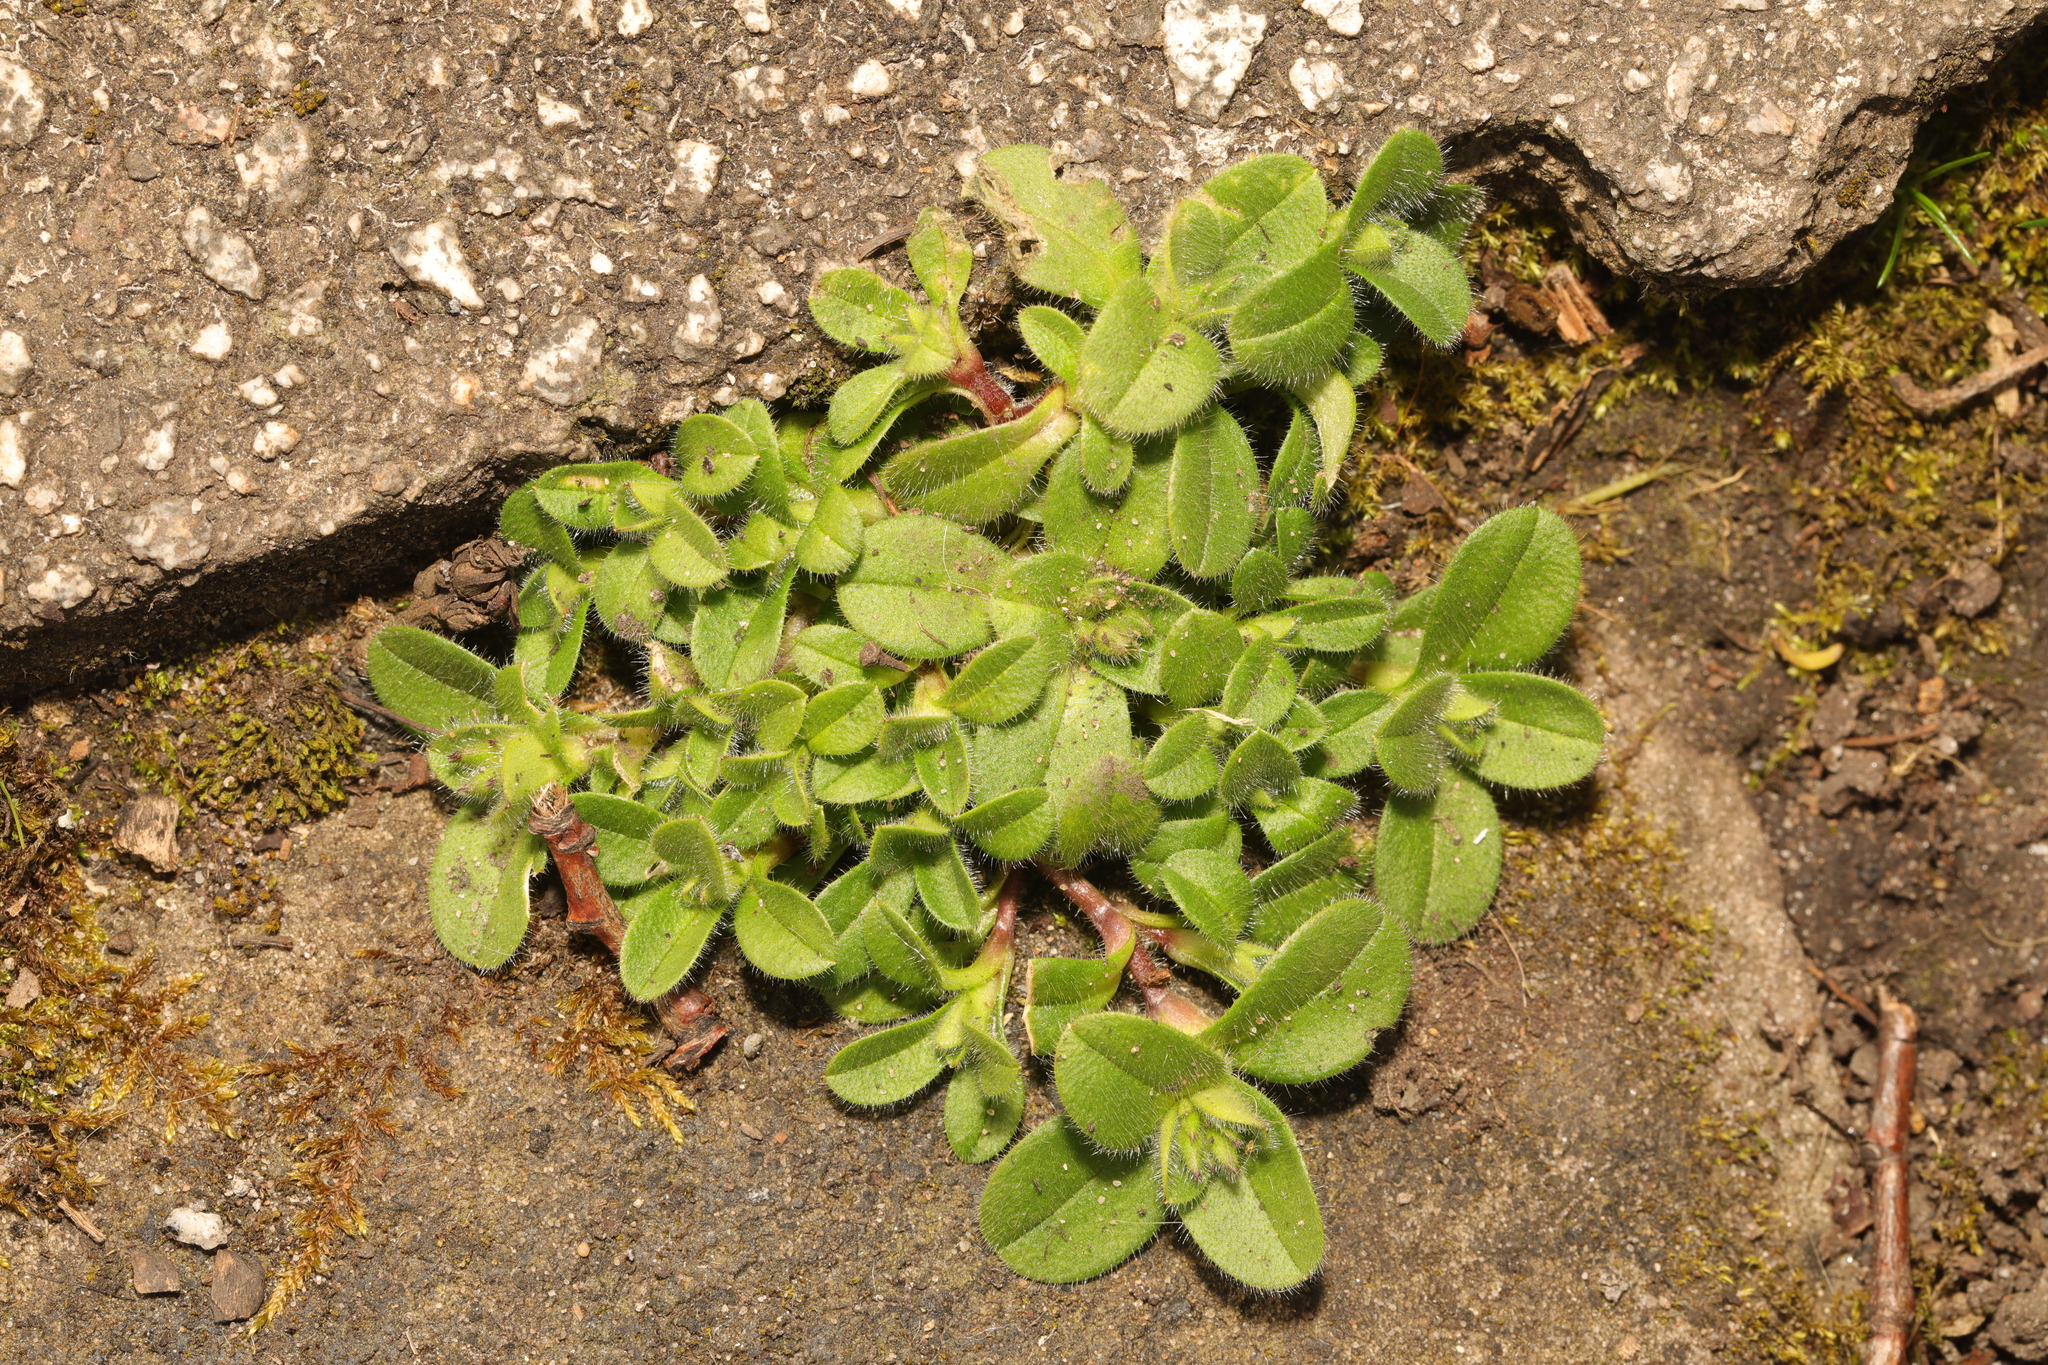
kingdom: Plantae
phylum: Tracheophyta
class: Magnoliopsida
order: Caryophyllales
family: Caryophyllaceae
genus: Cerastium
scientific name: Cerastium glomeratum
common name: Sticky chickweed
